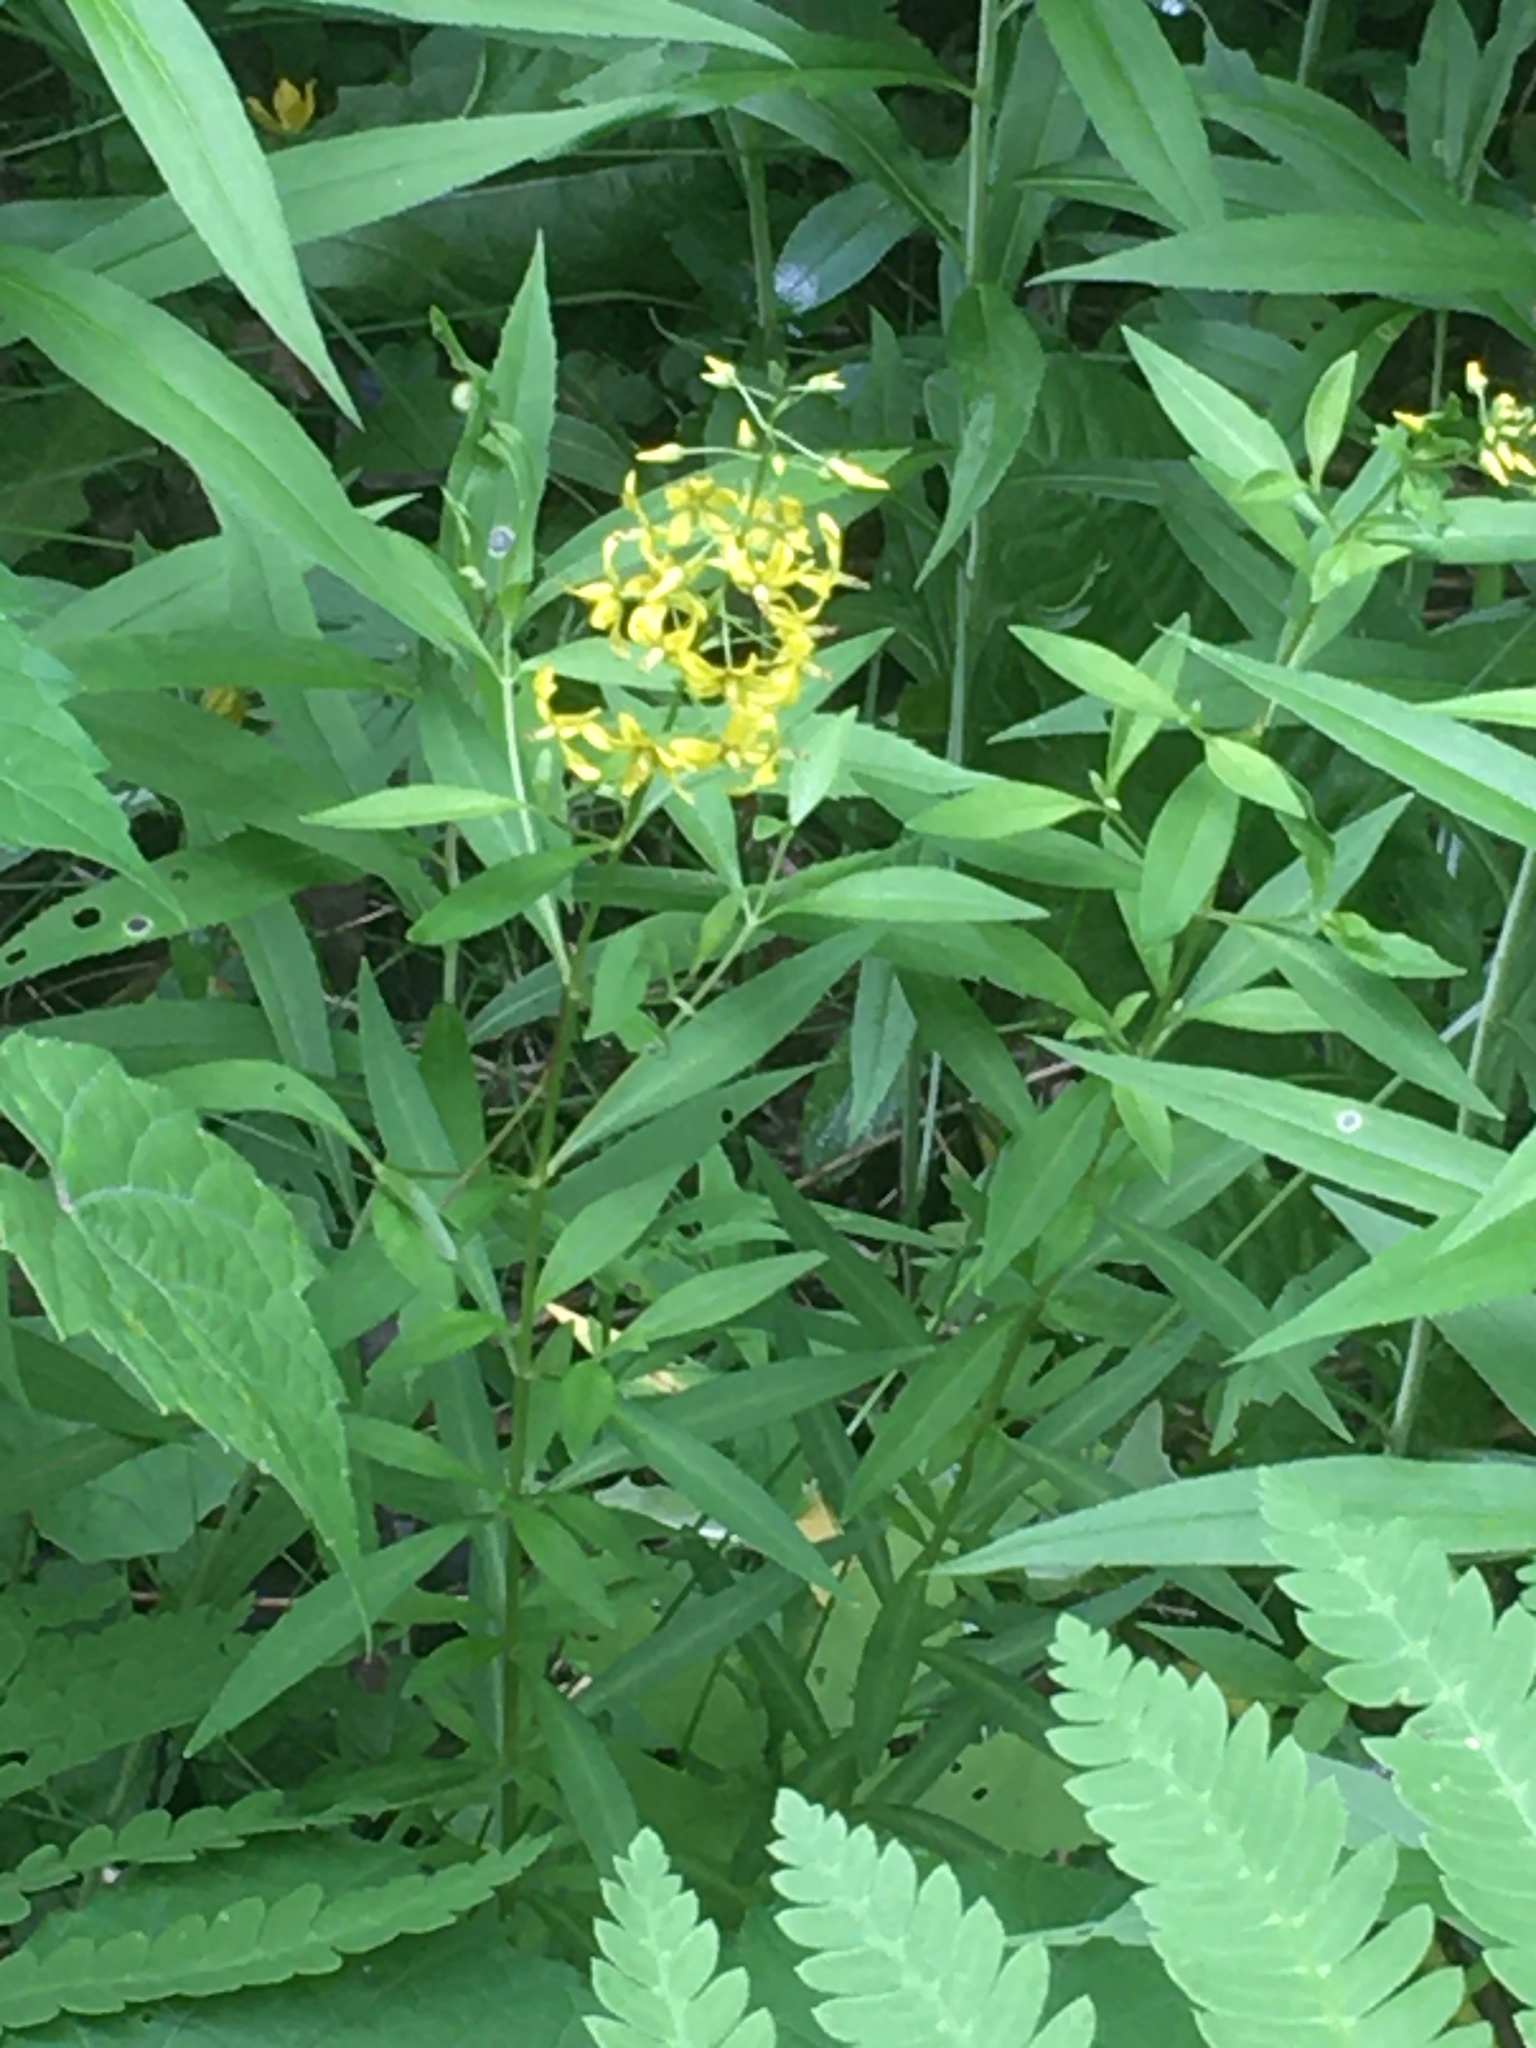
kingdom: Plantae
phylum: Tracheophyta
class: Magnoliopsida
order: Ericales
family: Primulaceae
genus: Lysimachia
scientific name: Lysimachia terrestris
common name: Lake loosestrife
